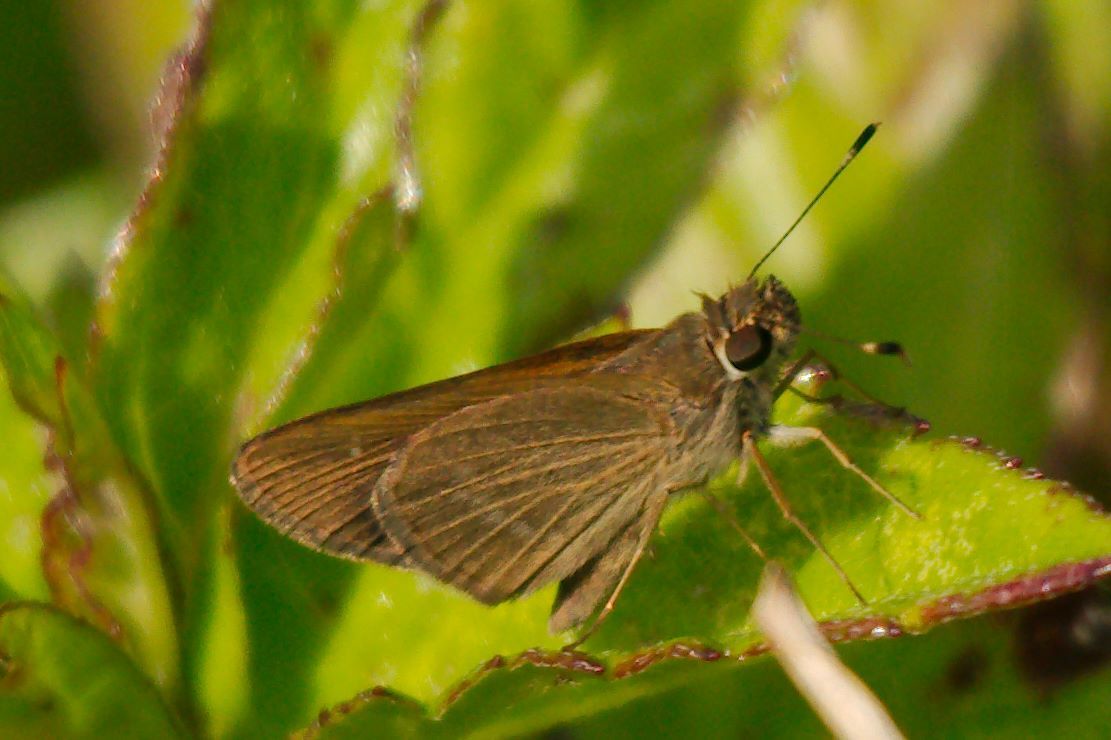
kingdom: Animalia
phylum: Arthropoda
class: Insecta
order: Lepidoptera
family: Hesperiidae
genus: Cymaenes
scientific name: Cymaenes tripunctus
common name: Dingy dotted skipper
